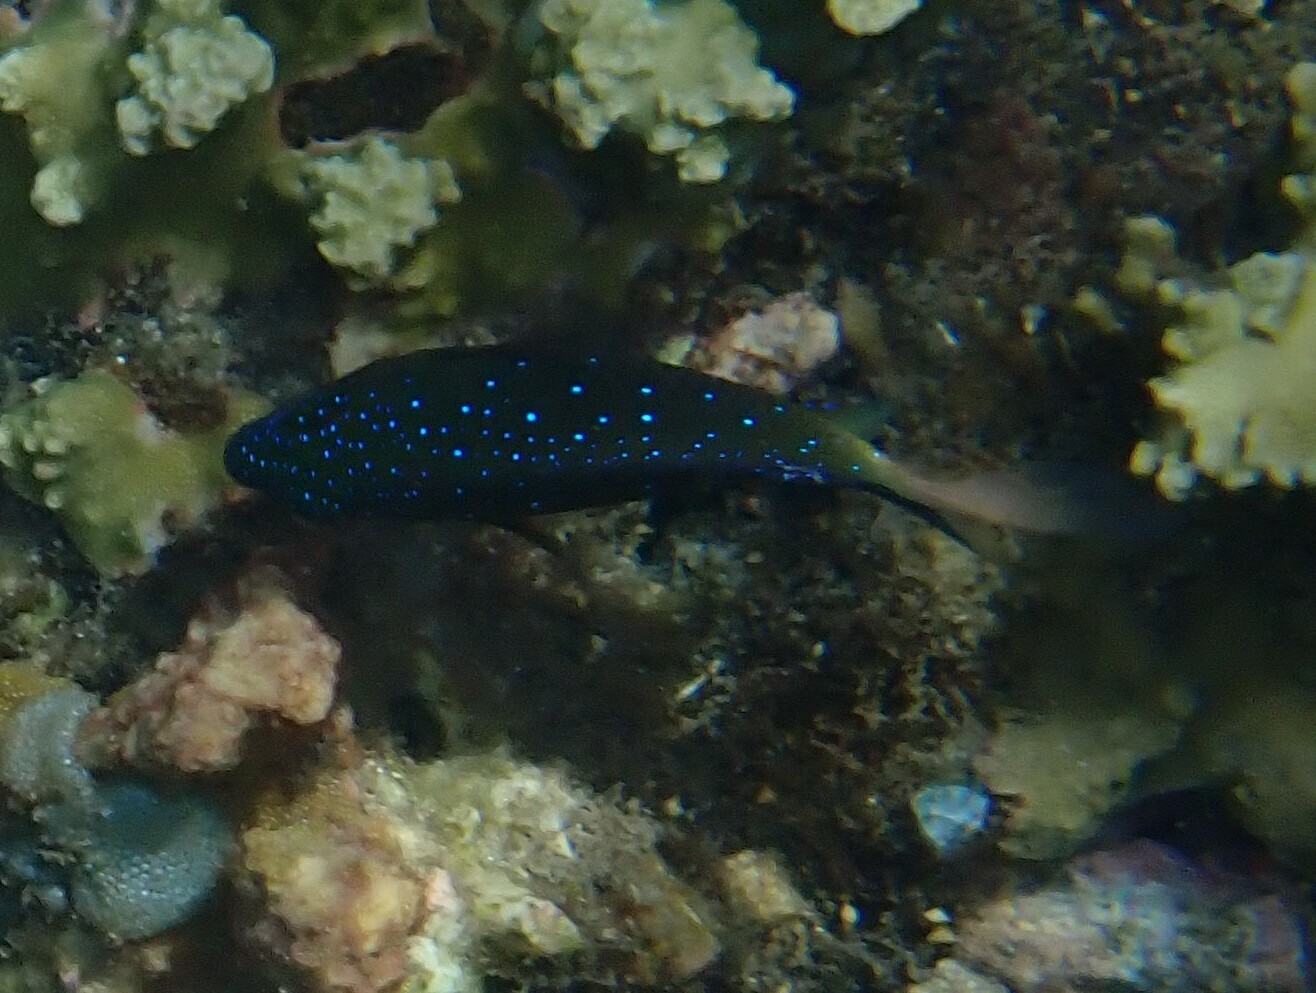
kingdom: Animalia
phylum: Chordata
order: Perciformes
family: Pomacentridae
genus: Plectroglyphidodon
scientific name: Plectroglyphidodon lacrymatus
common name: Jewel damsel
